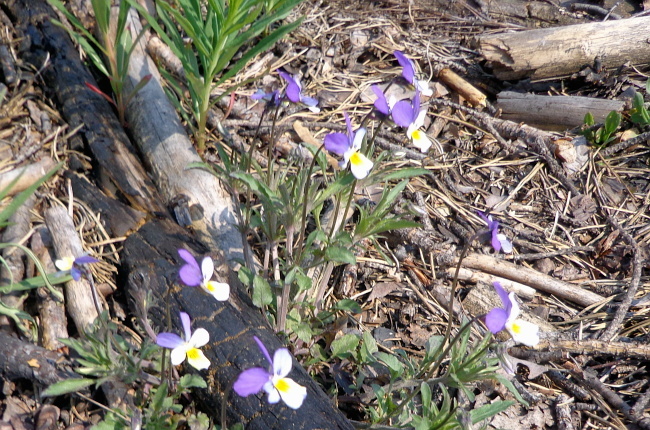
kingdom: Plantae
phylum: Tracheophyta
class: Magnoliopsida
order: Malpighiales
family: Violaceae
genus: Viola
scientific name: Viola tricolor
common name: Pansy
